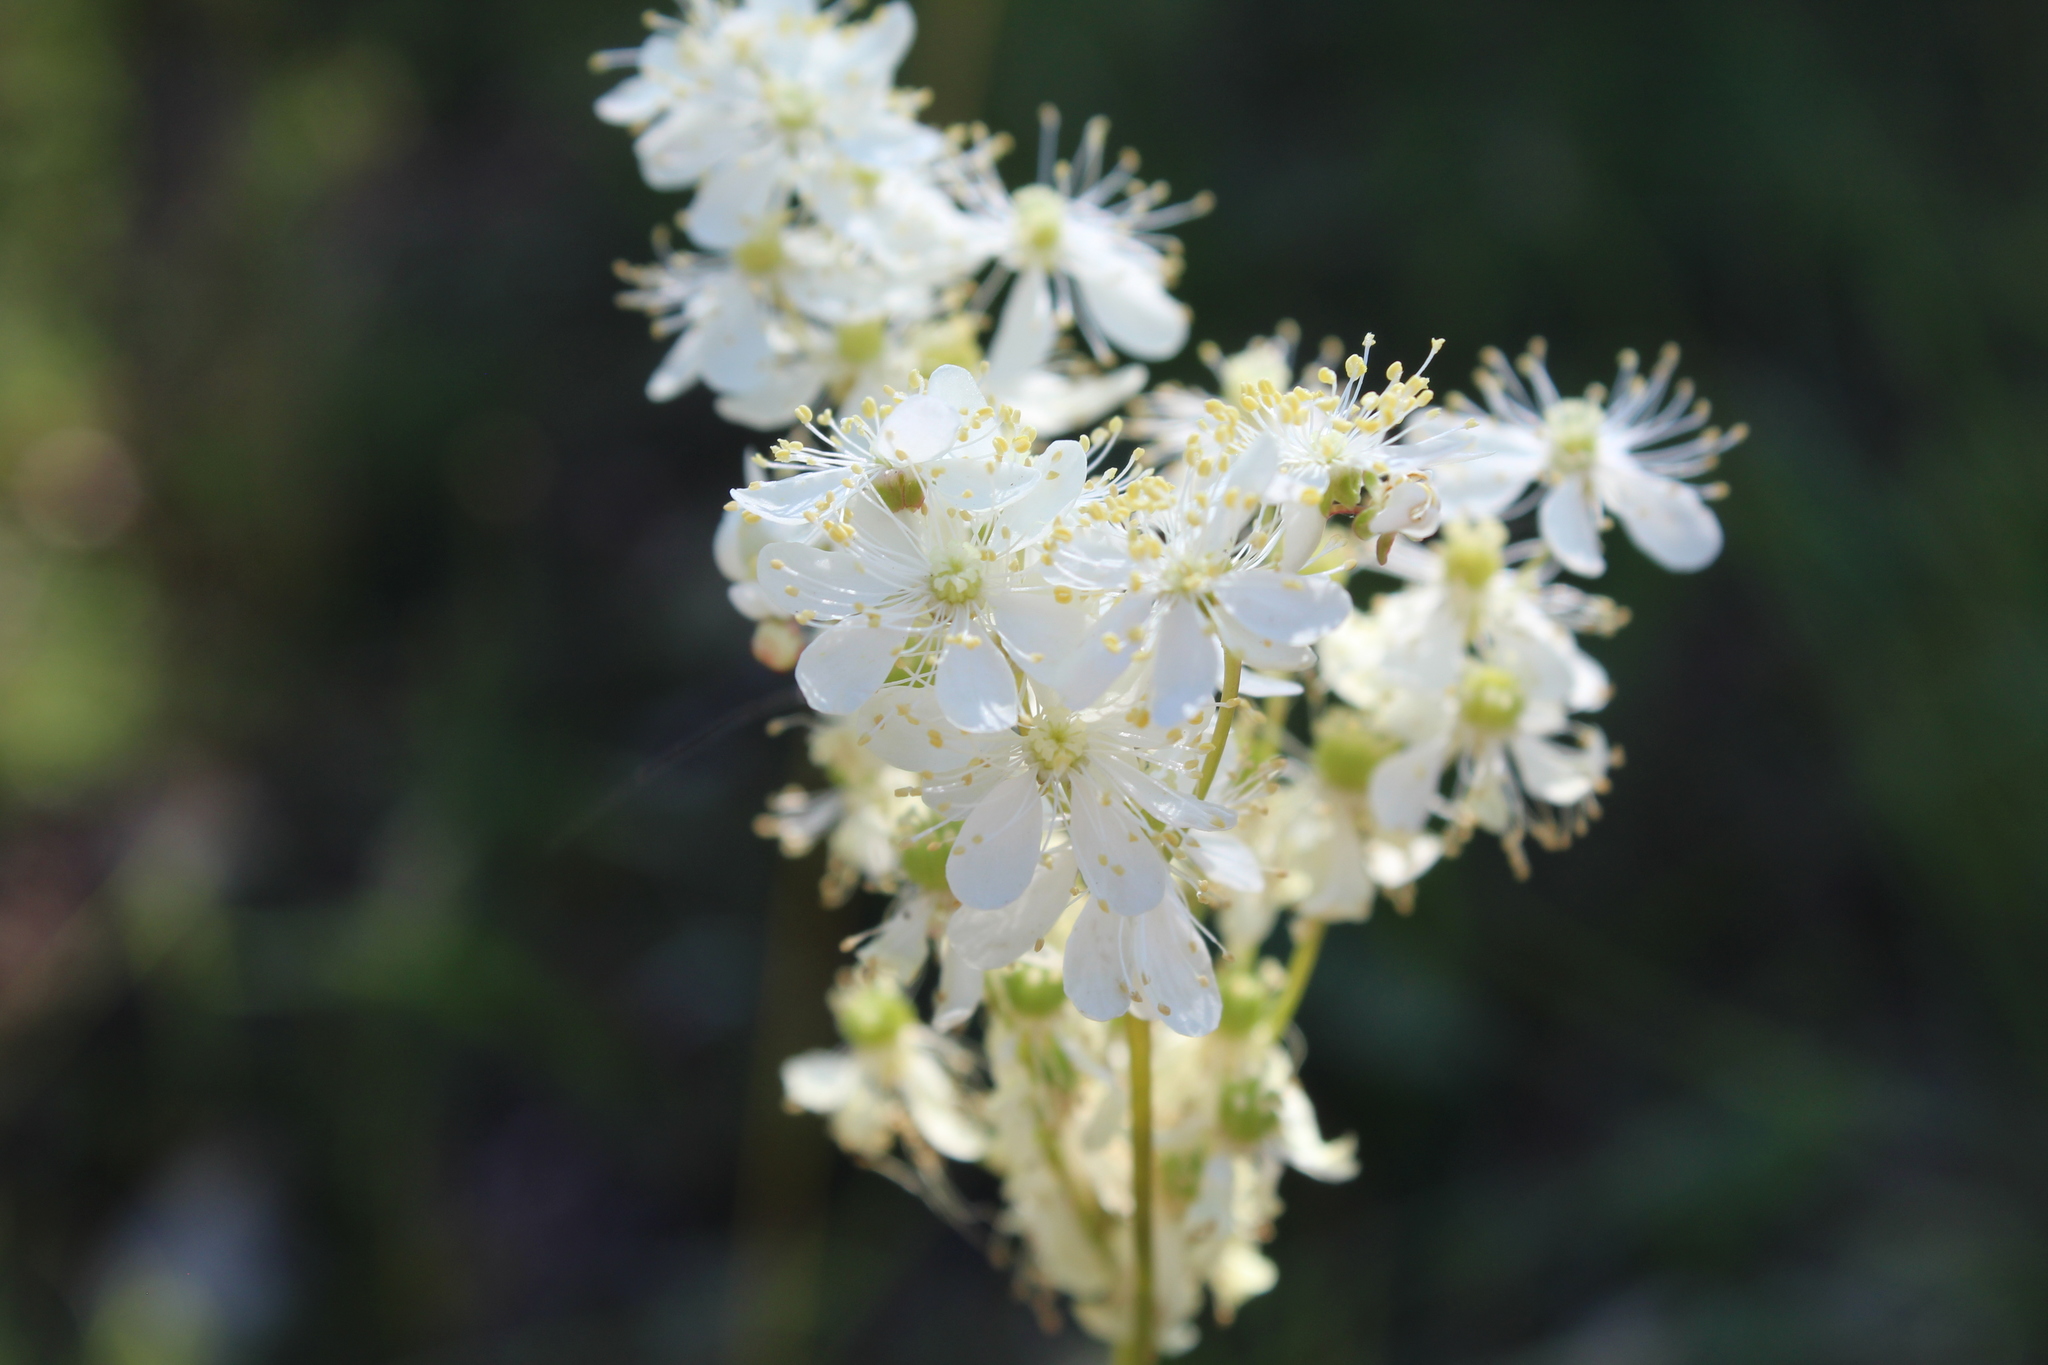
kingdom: Plantae
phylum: Tracheophyta
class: Magnoliopsida
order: Rosales
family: Rosaceae
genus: Filipendula
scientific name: Filipendula vulgaris
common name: Dropwort
